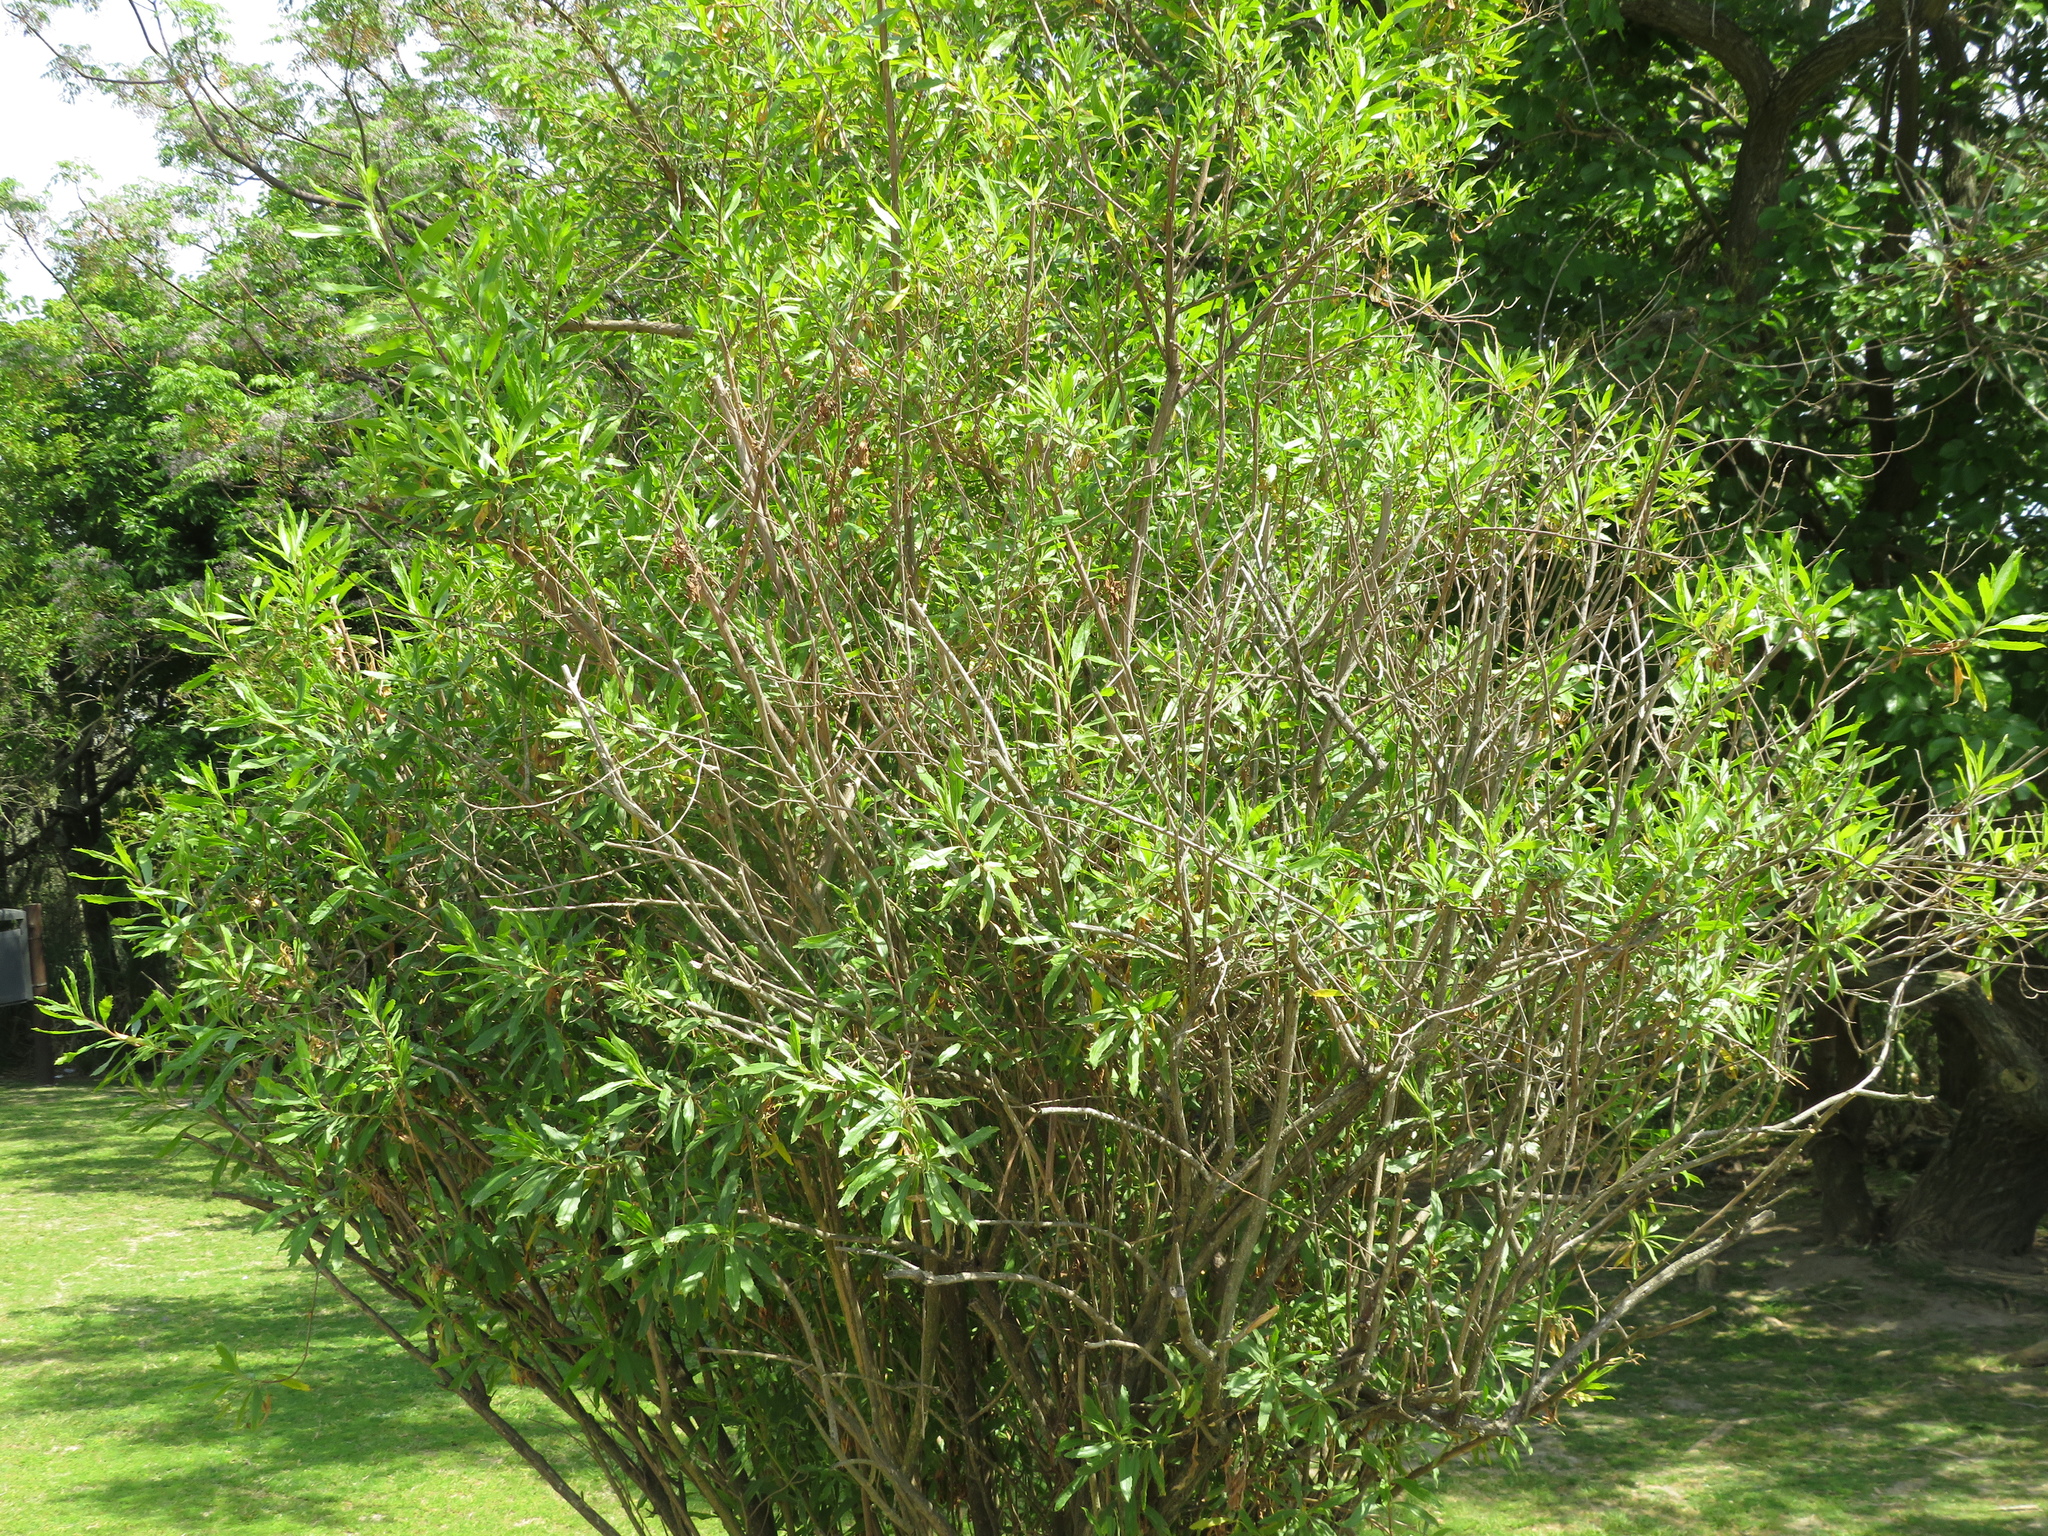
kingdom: Plantae
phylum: Tracheophyta
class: Magnoliopsida
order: Asterales
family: Asteraceae
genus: Baccharis
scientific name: Baccharis salicifolia
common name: Sticky baccharis
